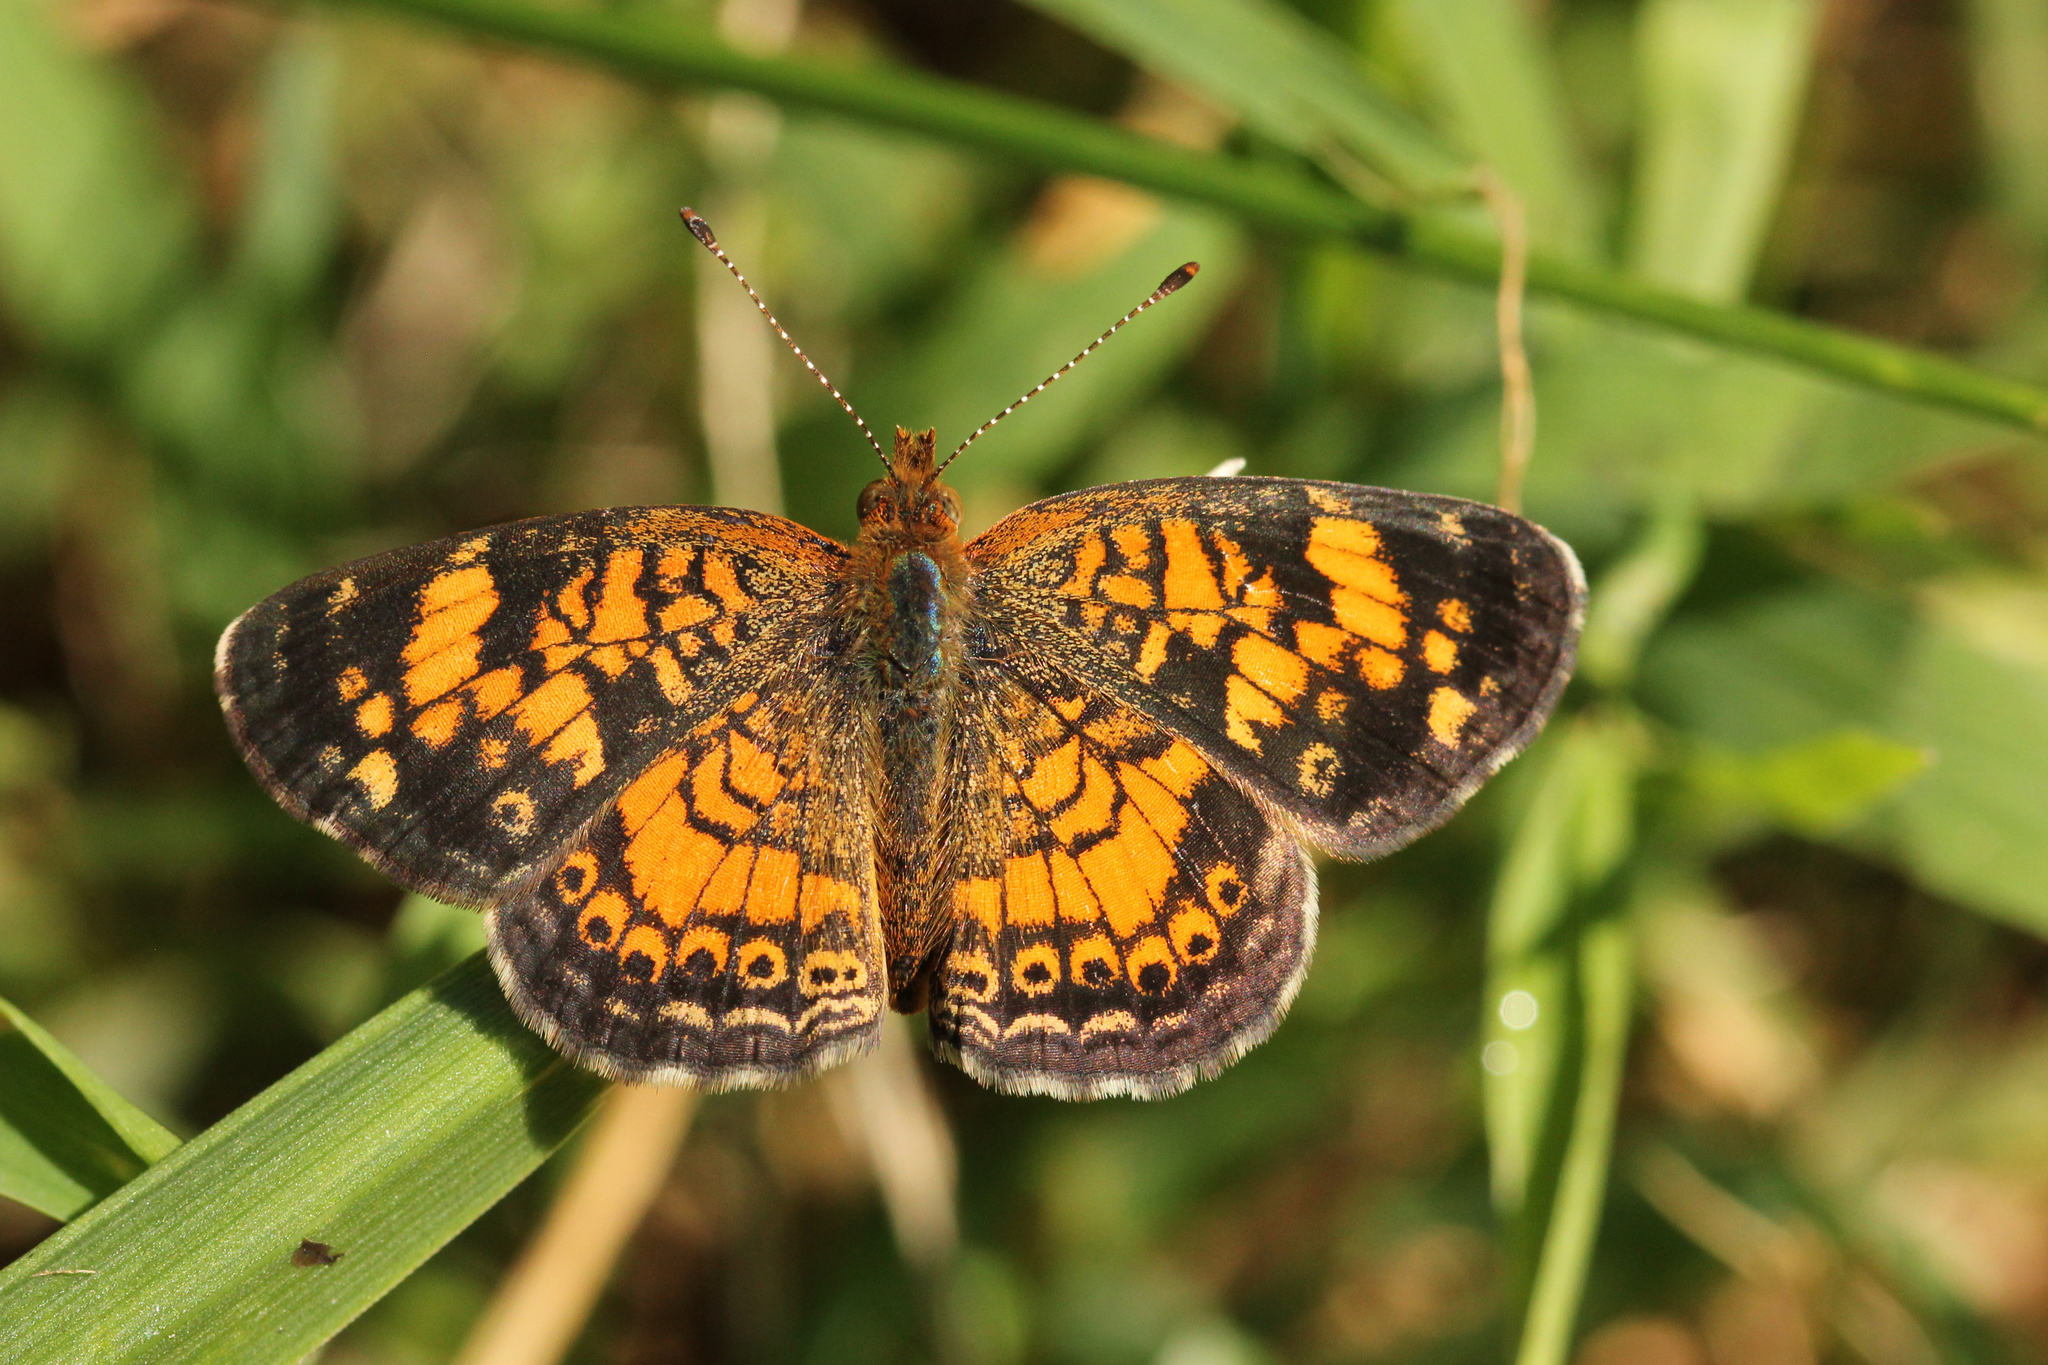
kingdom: Animalia
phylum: Arthropoda
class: Insecta
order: Lepidoptera
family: Nymphalidae
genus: Phyciodes
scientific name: Phyciodes tharos
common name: Pearl crescent
